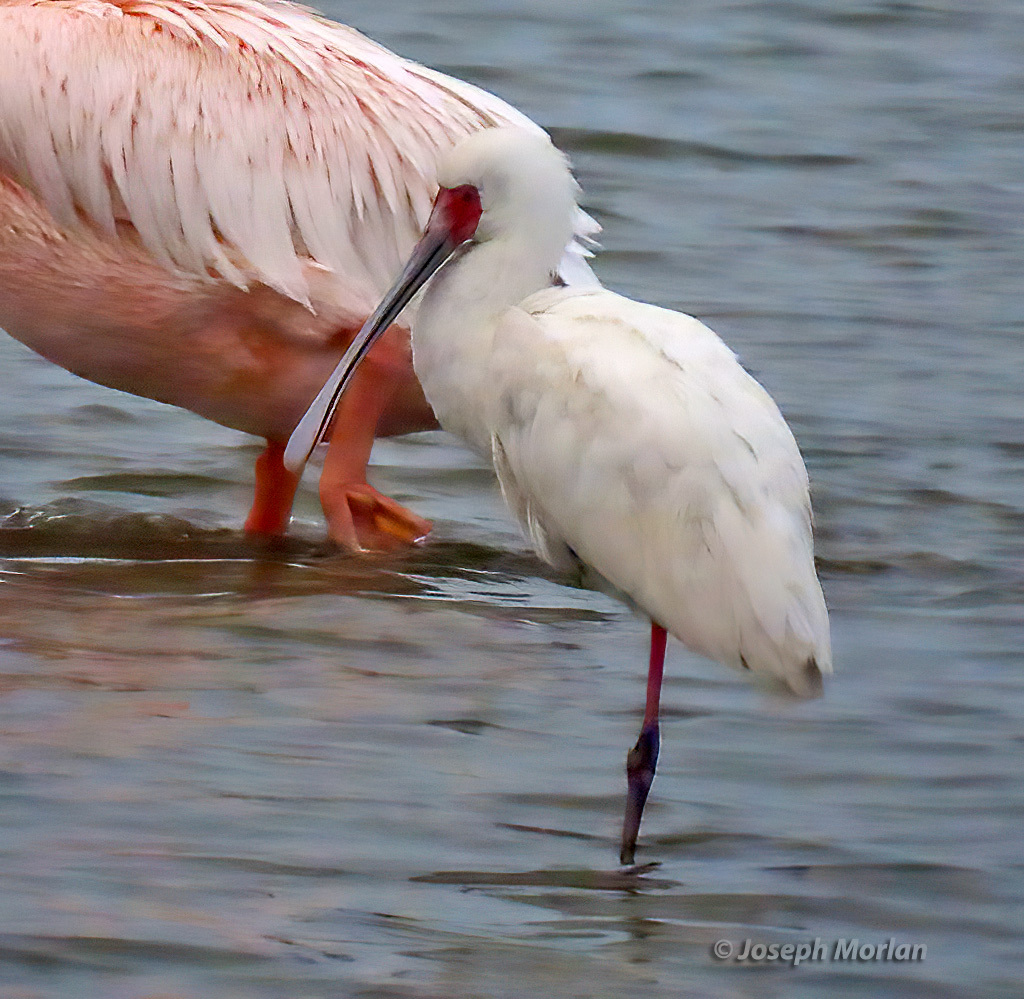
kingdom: Animalia
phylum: Chordata
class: Aves
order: Pelecaniformes
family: Threskiornithidae
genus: Platalea
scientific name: Platalea alba
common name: African spoonbill
